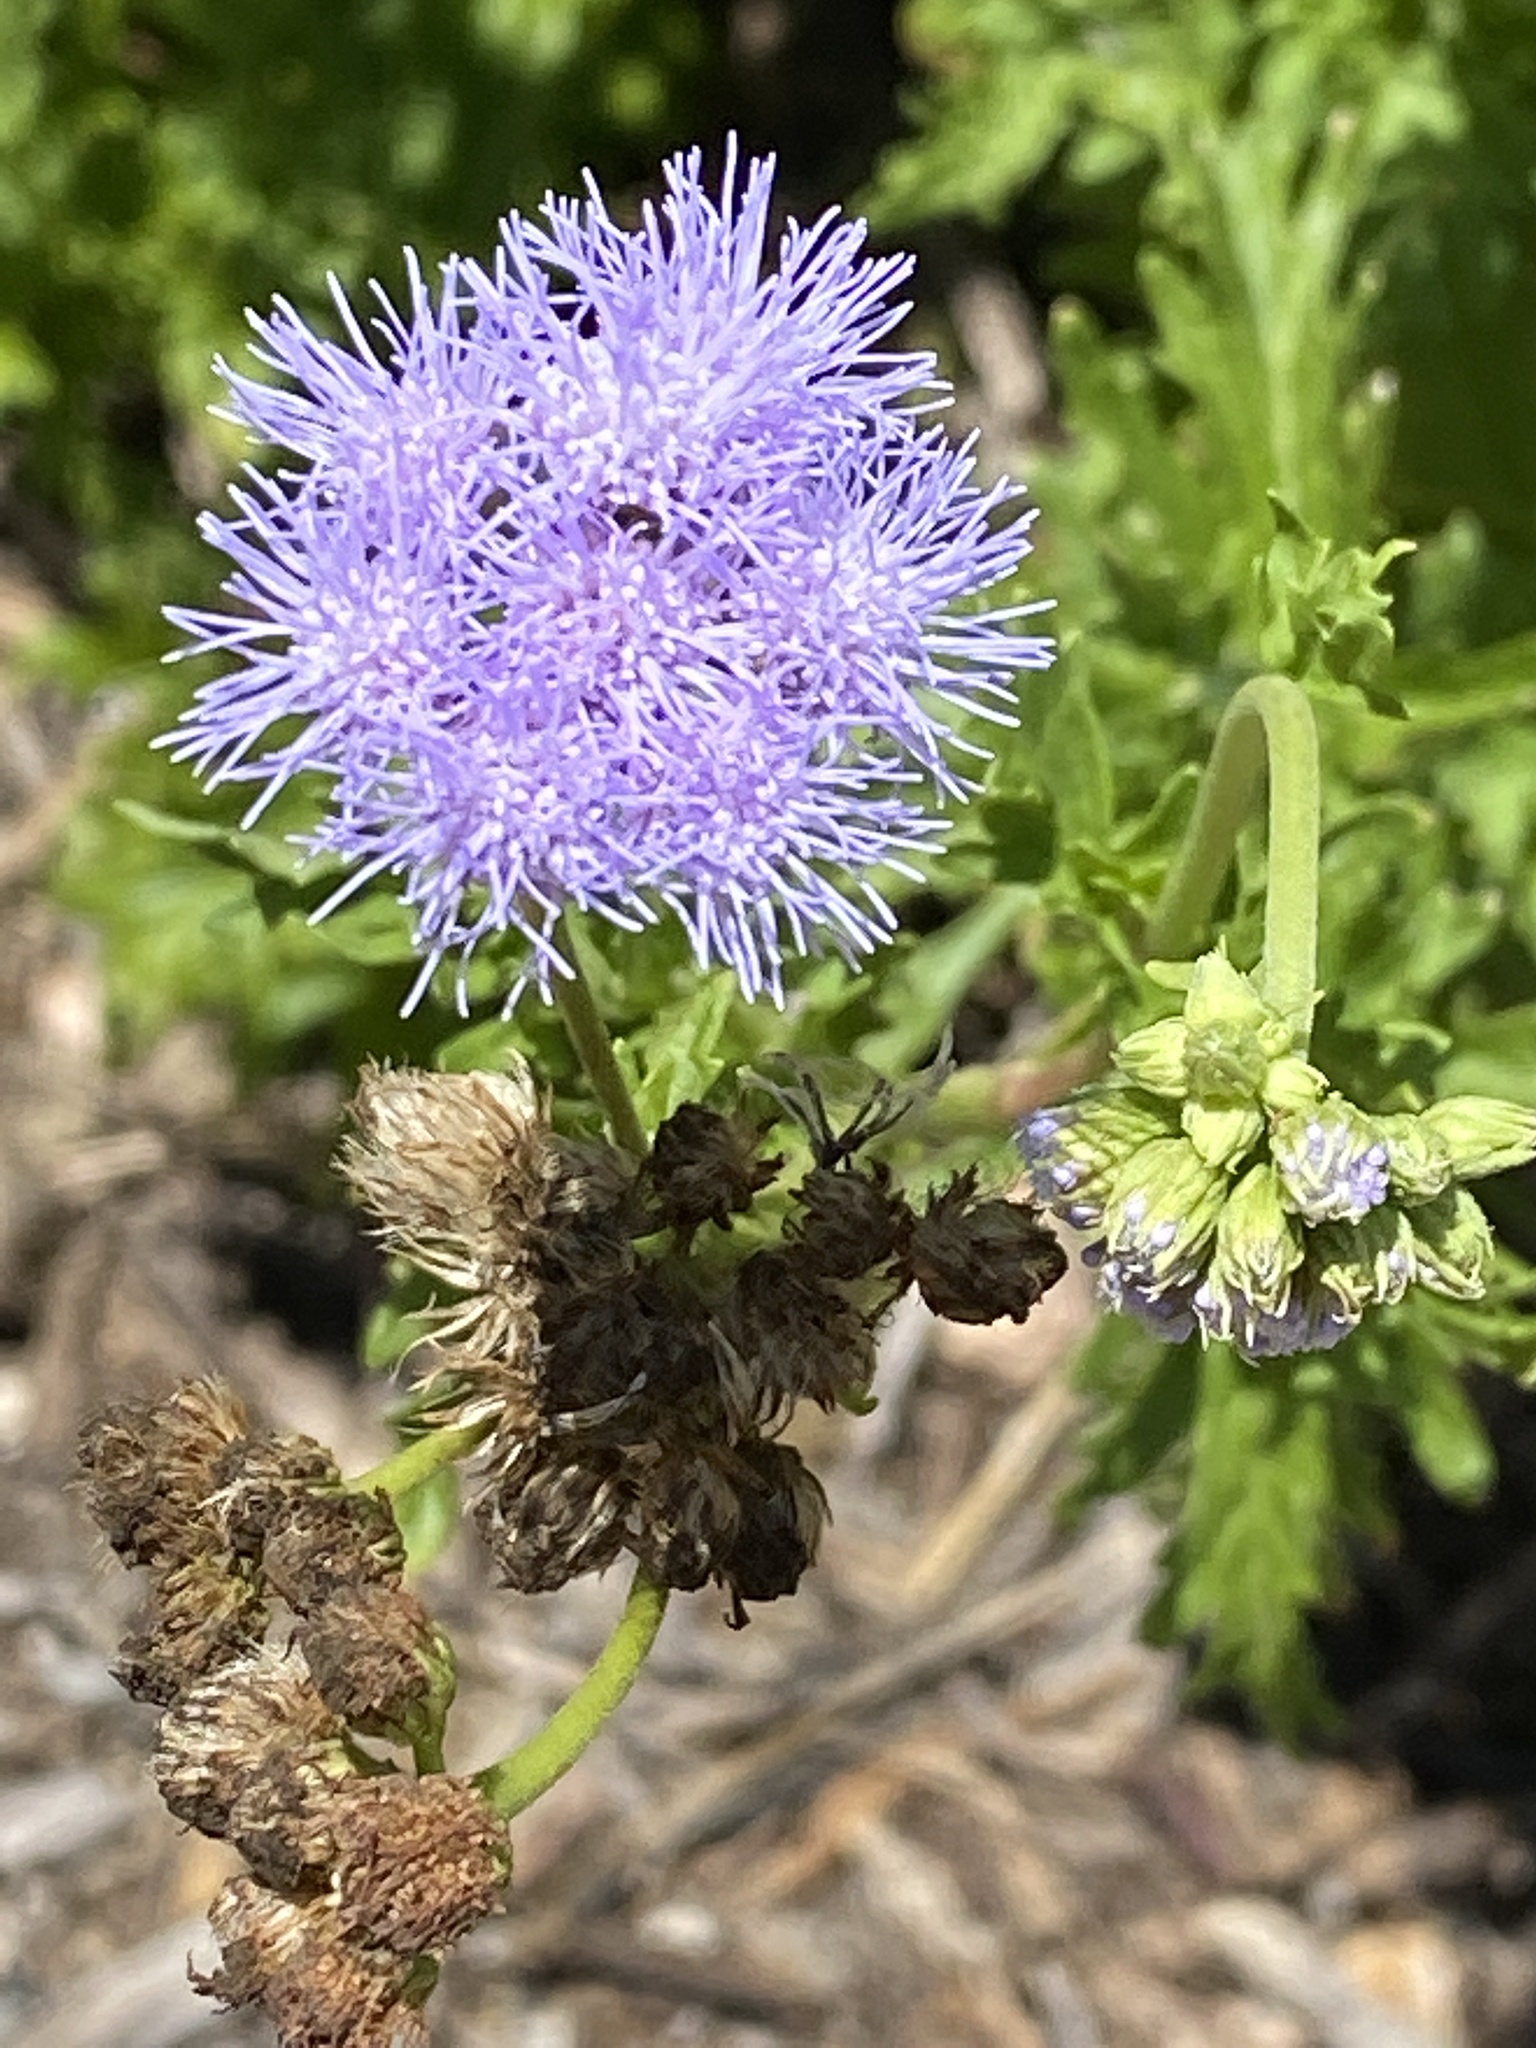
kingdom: Plantae
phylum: Tracheophyta
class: Magnoliopsida
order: Asterales
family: Asteraceae
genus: Conoclinium
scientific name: Conoclinium dissectum
